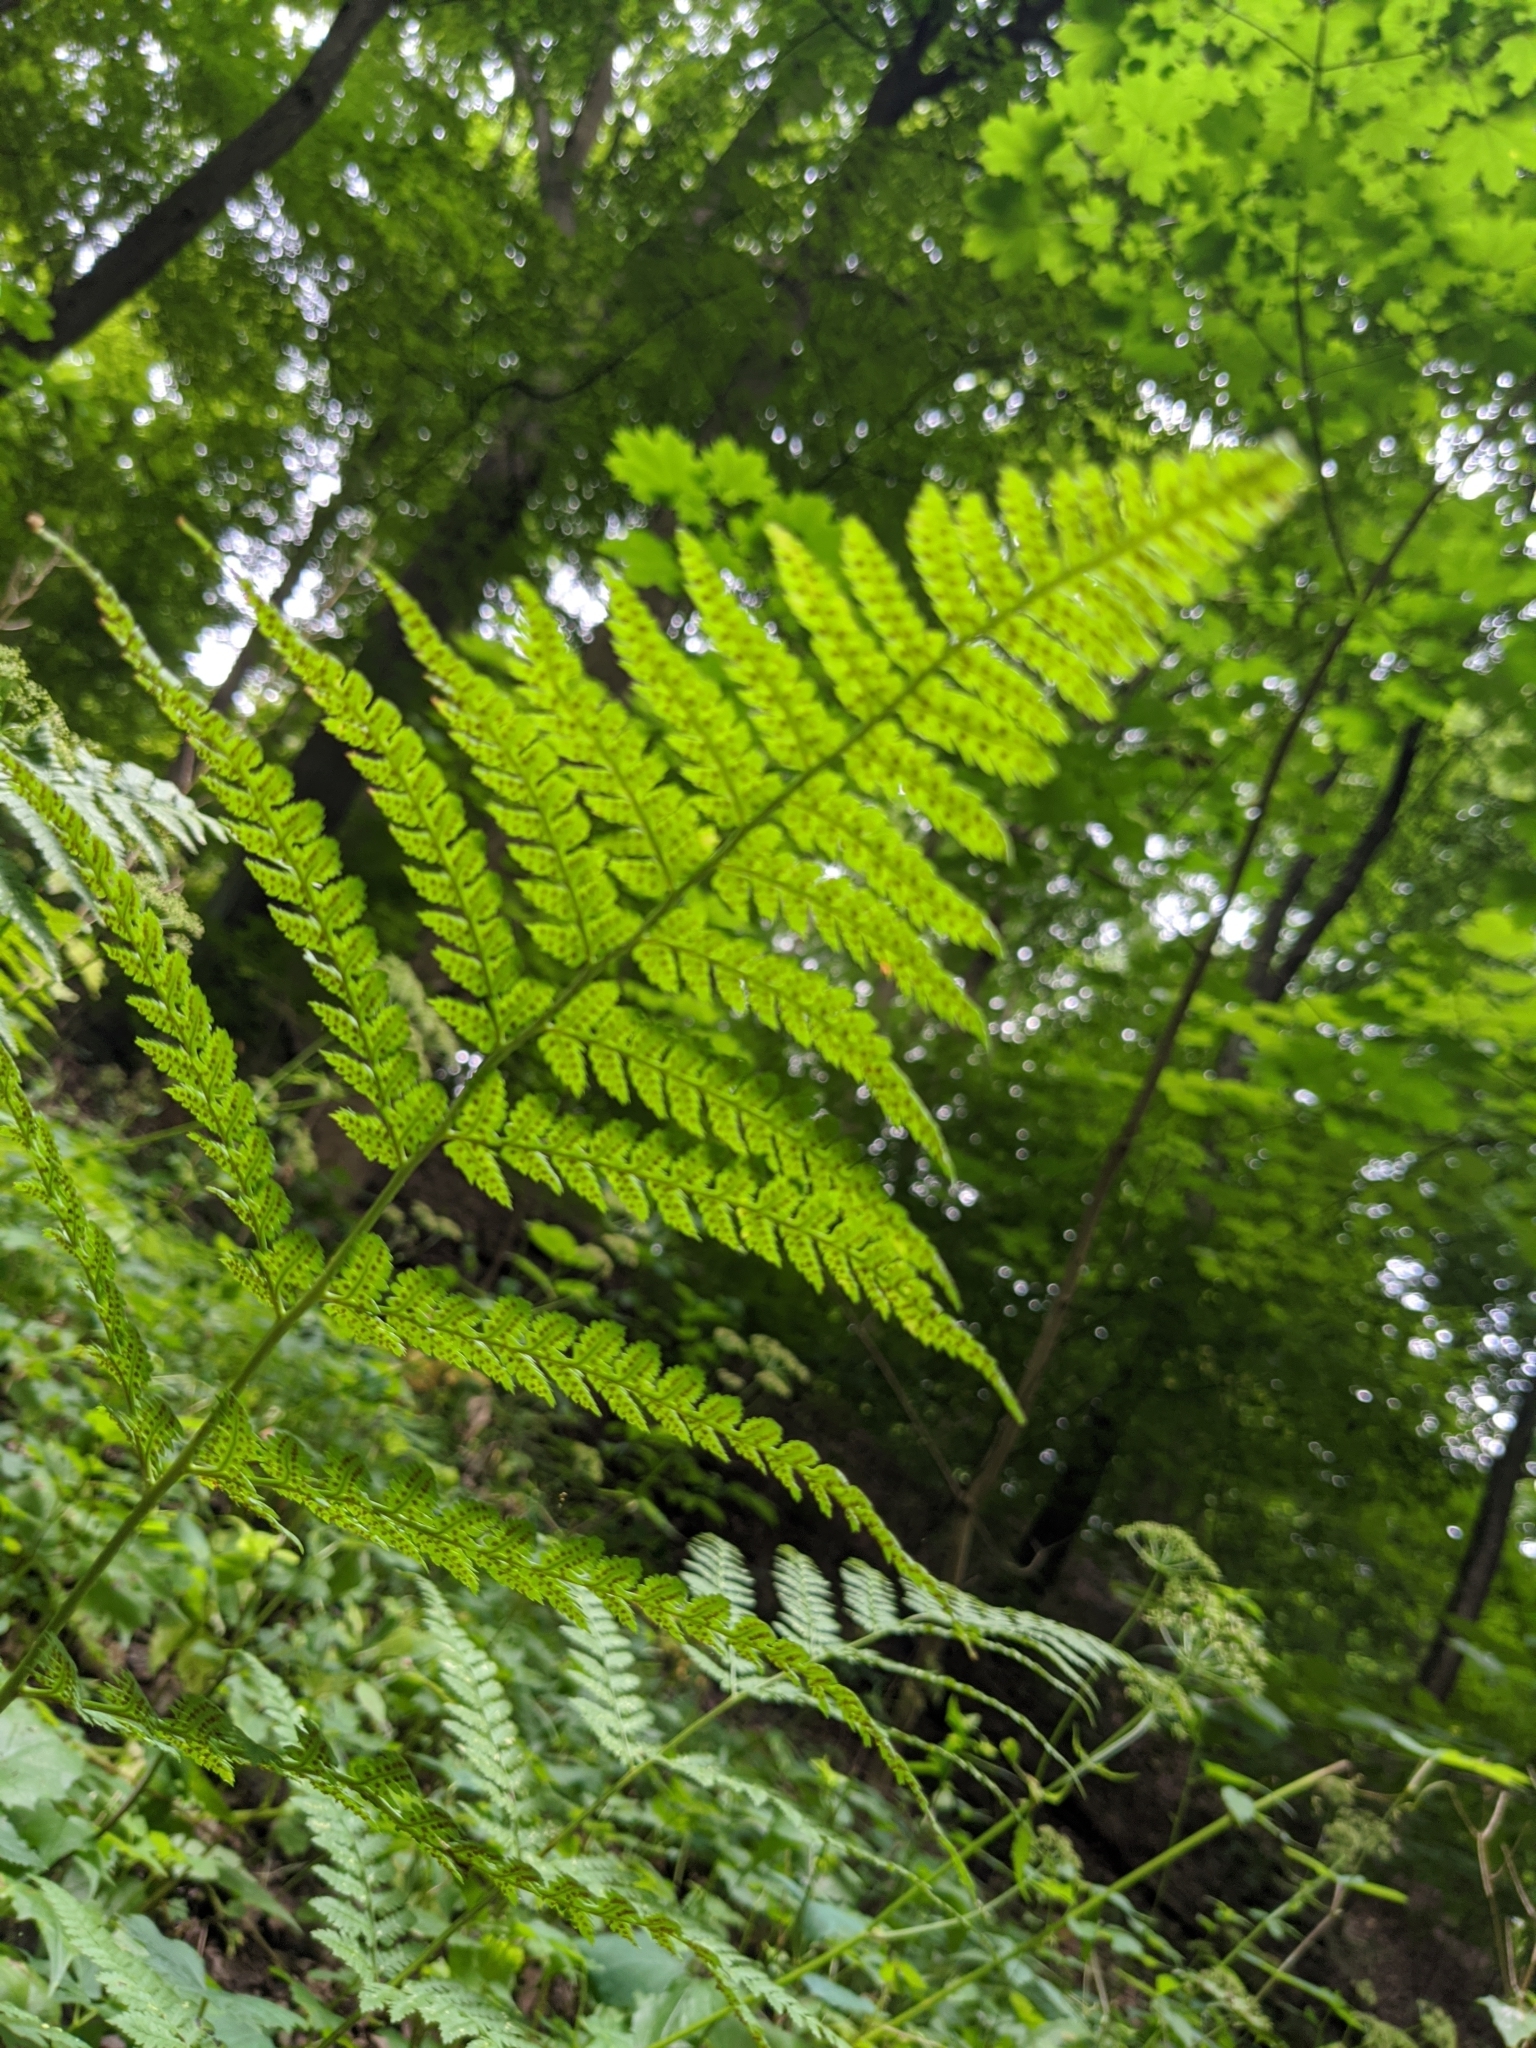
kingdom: Plantae
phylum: Tracheophyta
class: Polypodiopsida
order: Polypodiales
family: Dryopteridaceae
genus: Dryopteris
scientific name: Dryopteris intermedia
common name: Evergreen wood fern
